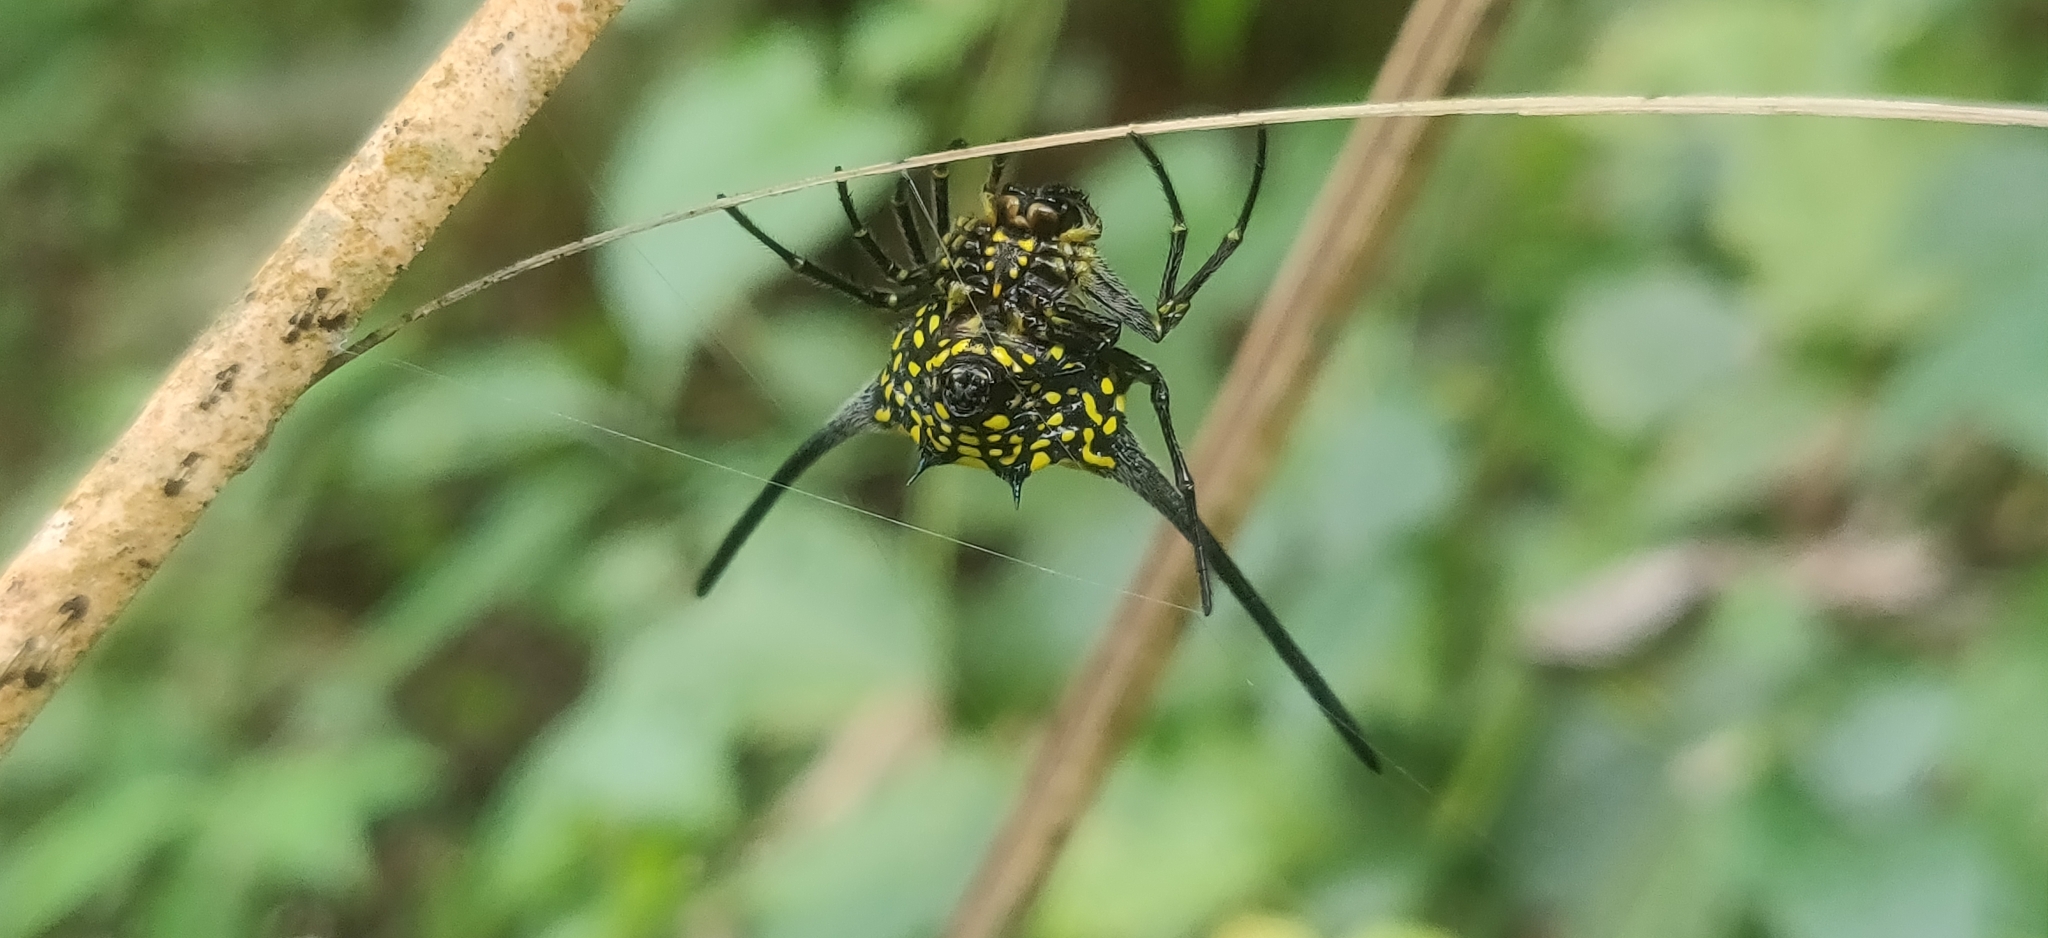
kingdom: Animalia
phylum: Arthropoda
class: Arachnida
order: Araneae
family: Araneidae
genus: Gasteracantha
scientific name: Gasteracantha dalyi
